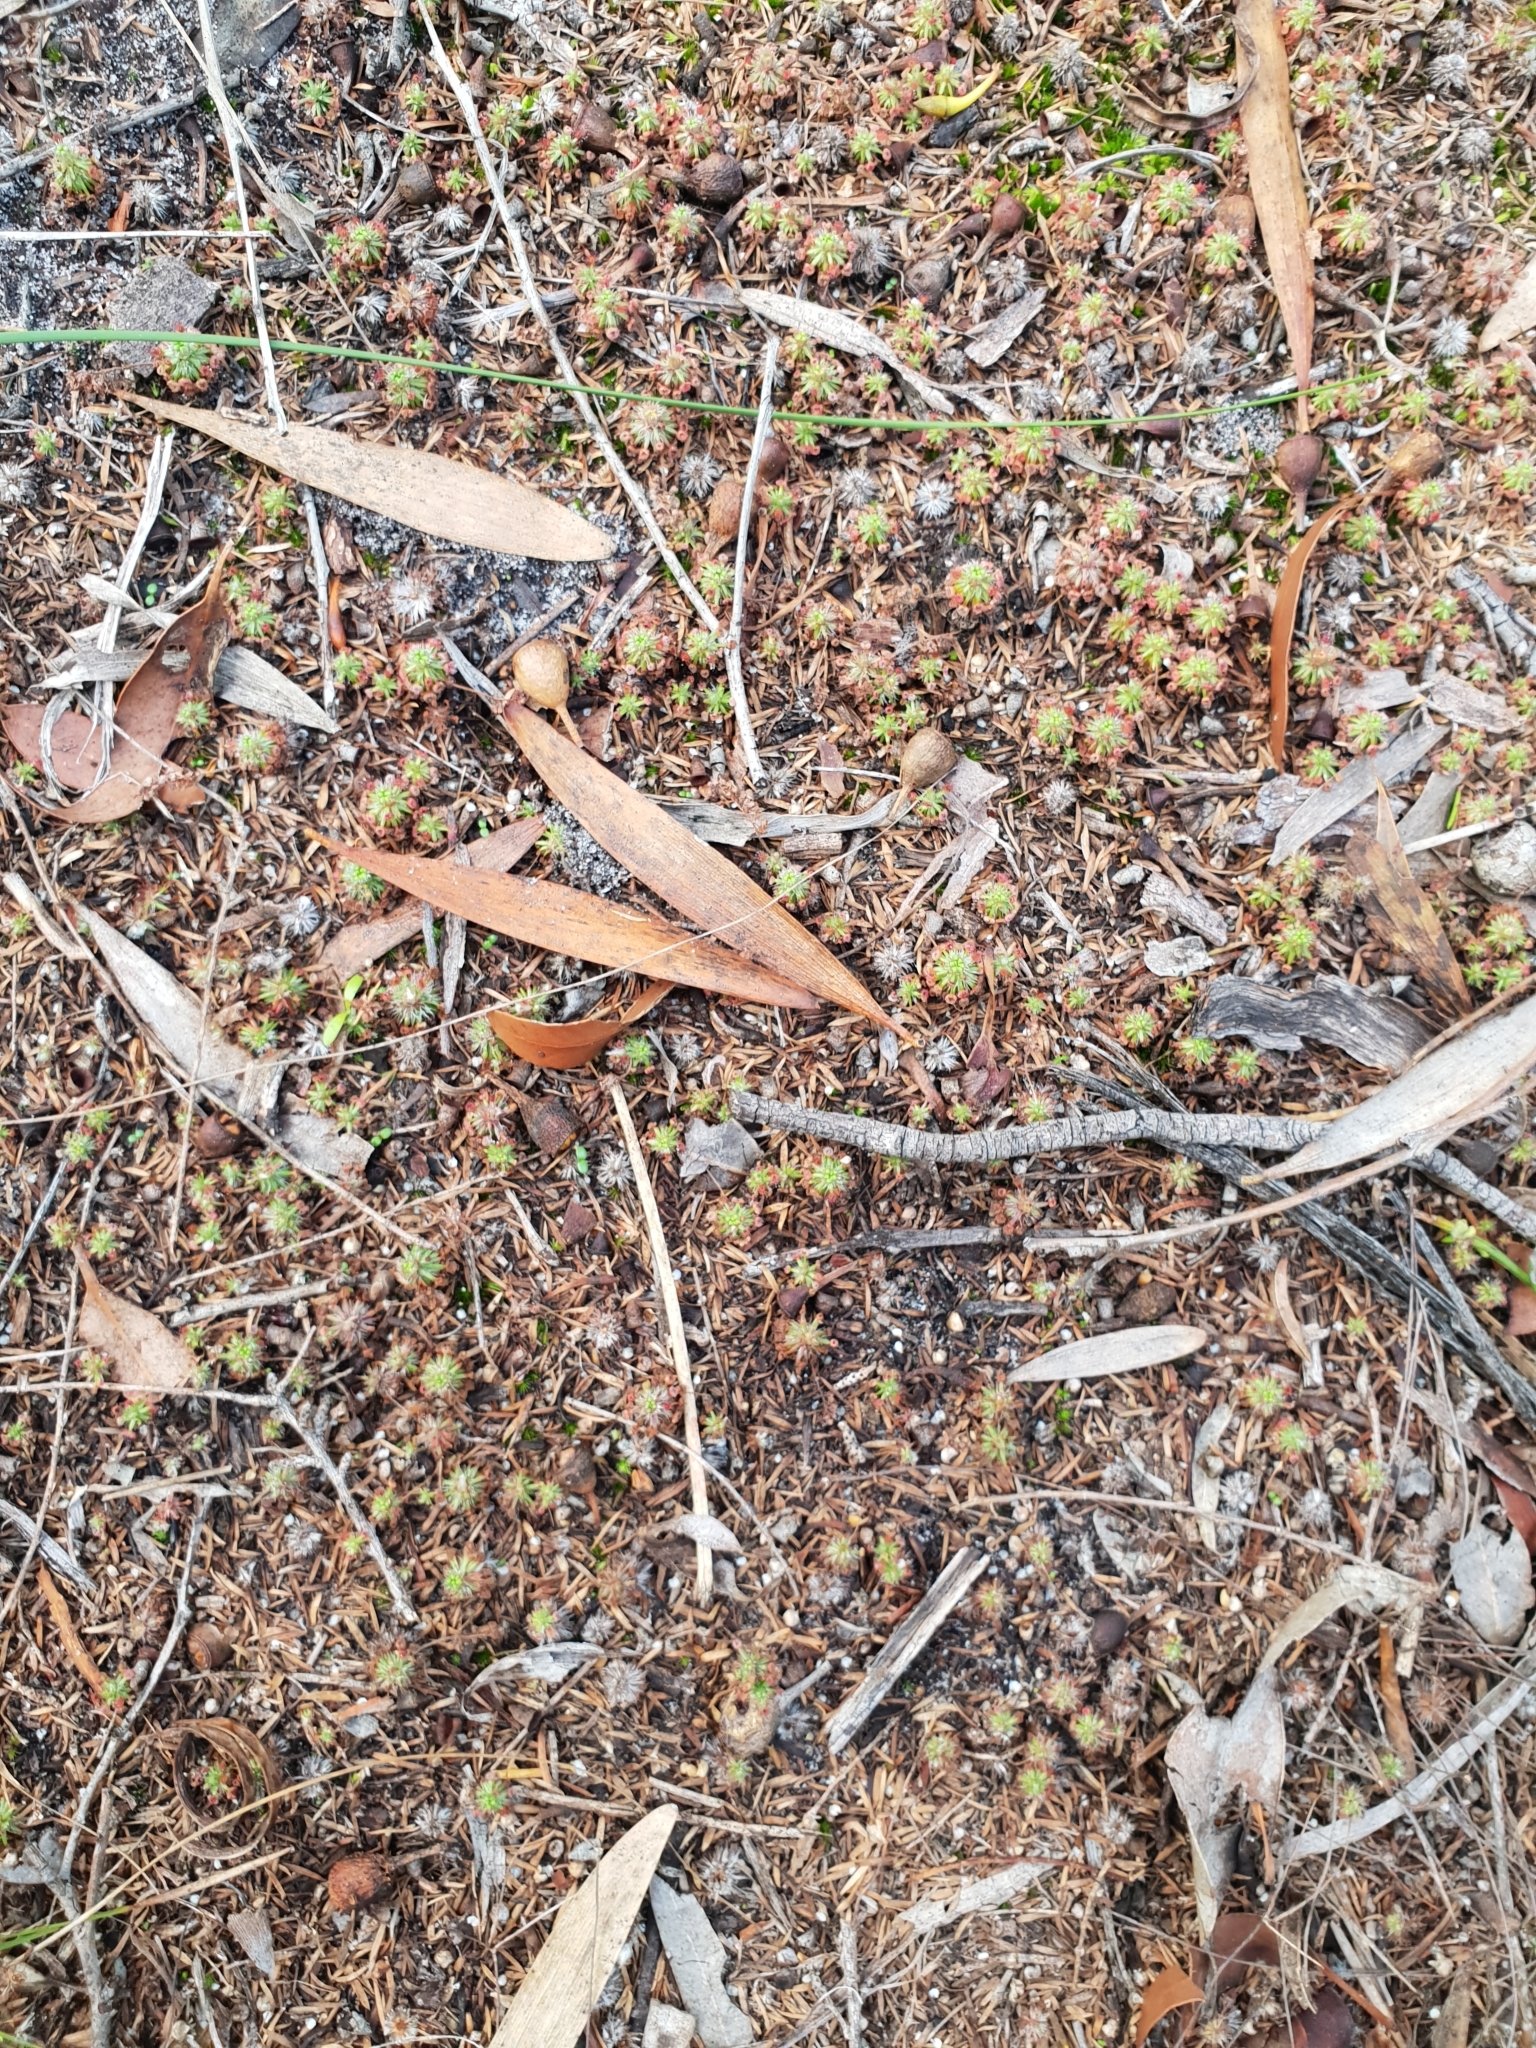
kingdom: Plantae
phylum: Tracheophyta
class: Magnoliopsida
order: Caryophyllales
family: Droseraceae
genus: Drosera
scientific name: Drosera paleacea
